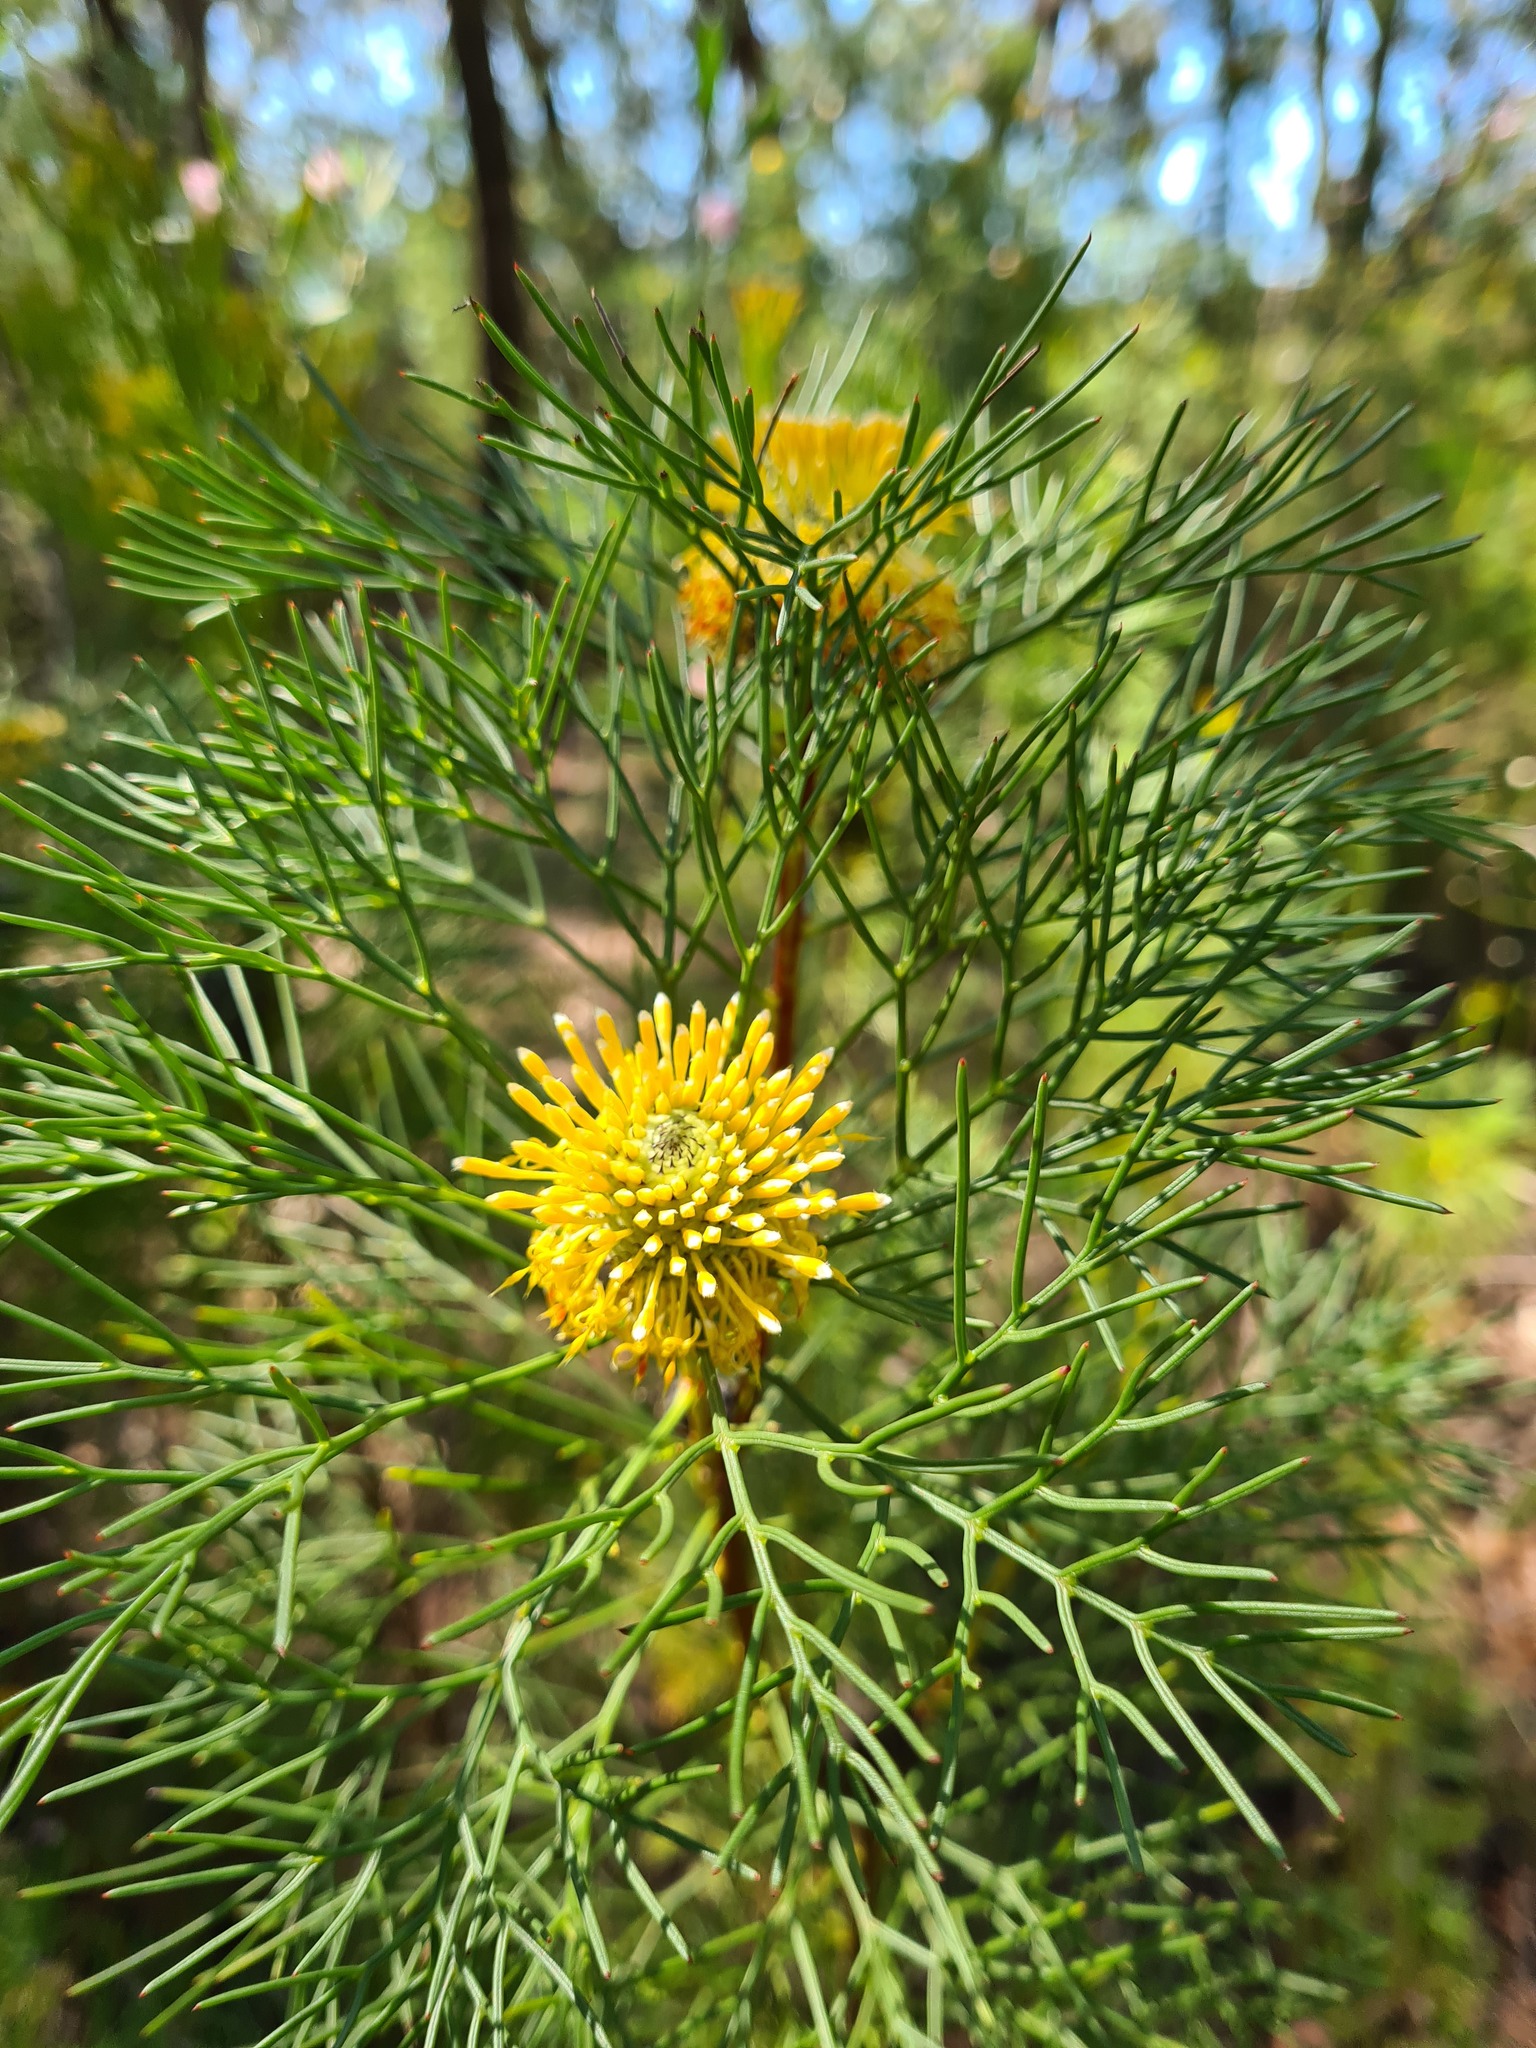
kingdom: Plantae
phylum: Tracheophyta
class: Magnoliopsida
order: Proteales
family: Proteaceae
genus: Isopogon
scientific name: Isopogon anethifolius
